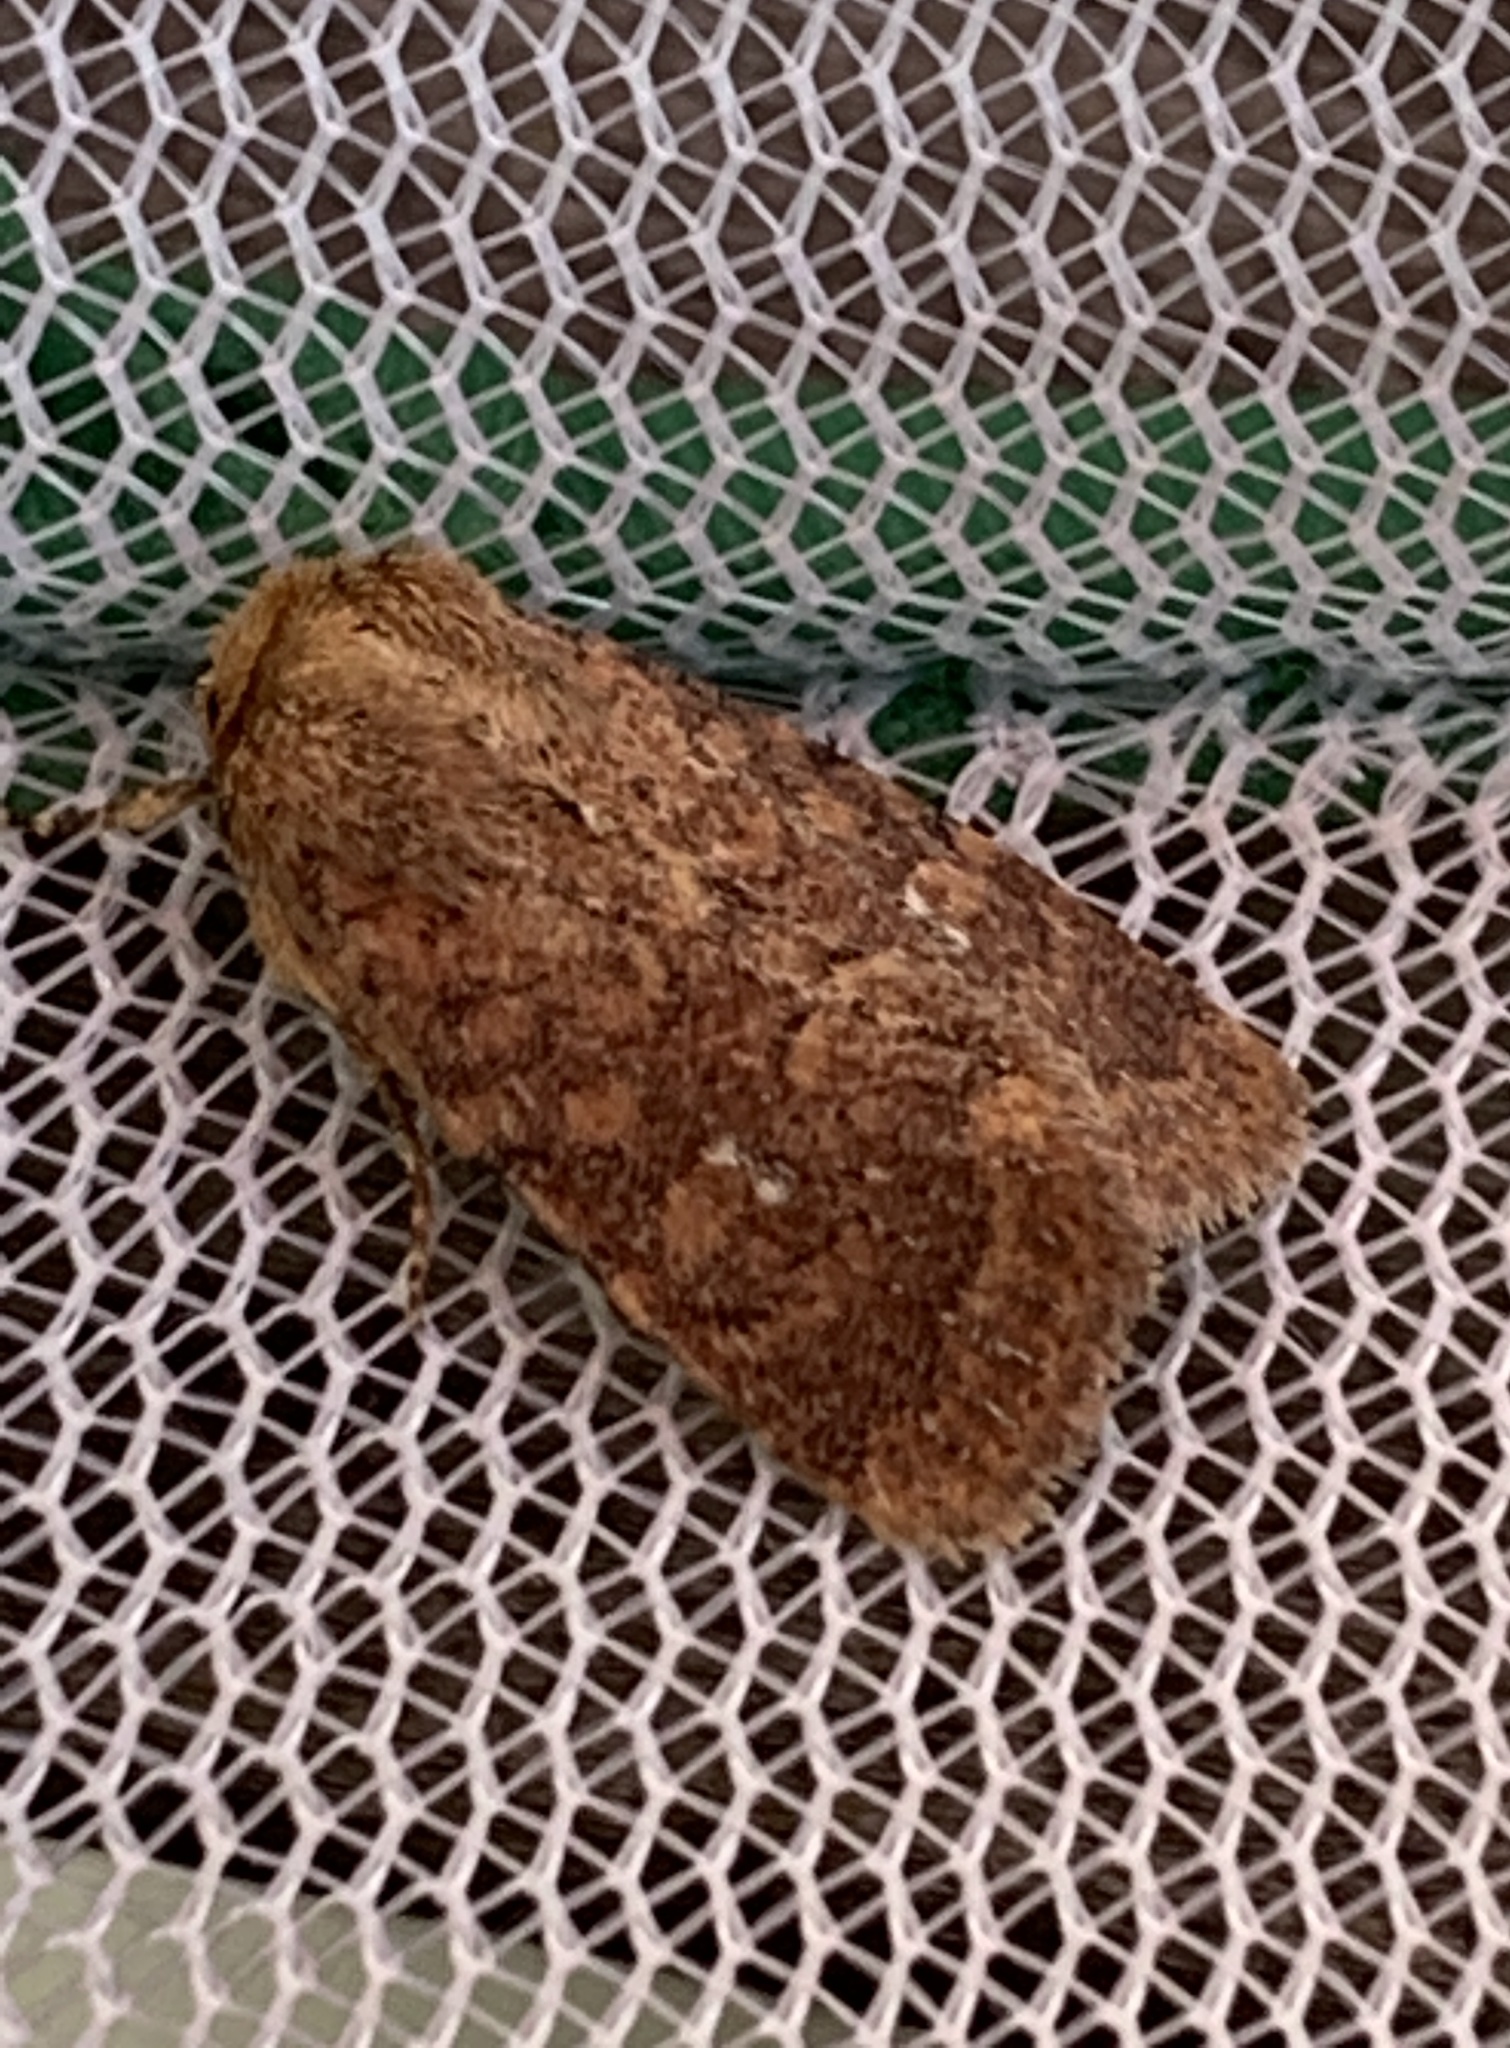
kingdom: Animalia
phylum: Arthropoda
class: Insecta
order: Lepidoptera
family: Noctuidae
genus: Homorthodes
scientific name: Homorthodes lindseyi
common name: Southern scurfy quaker
